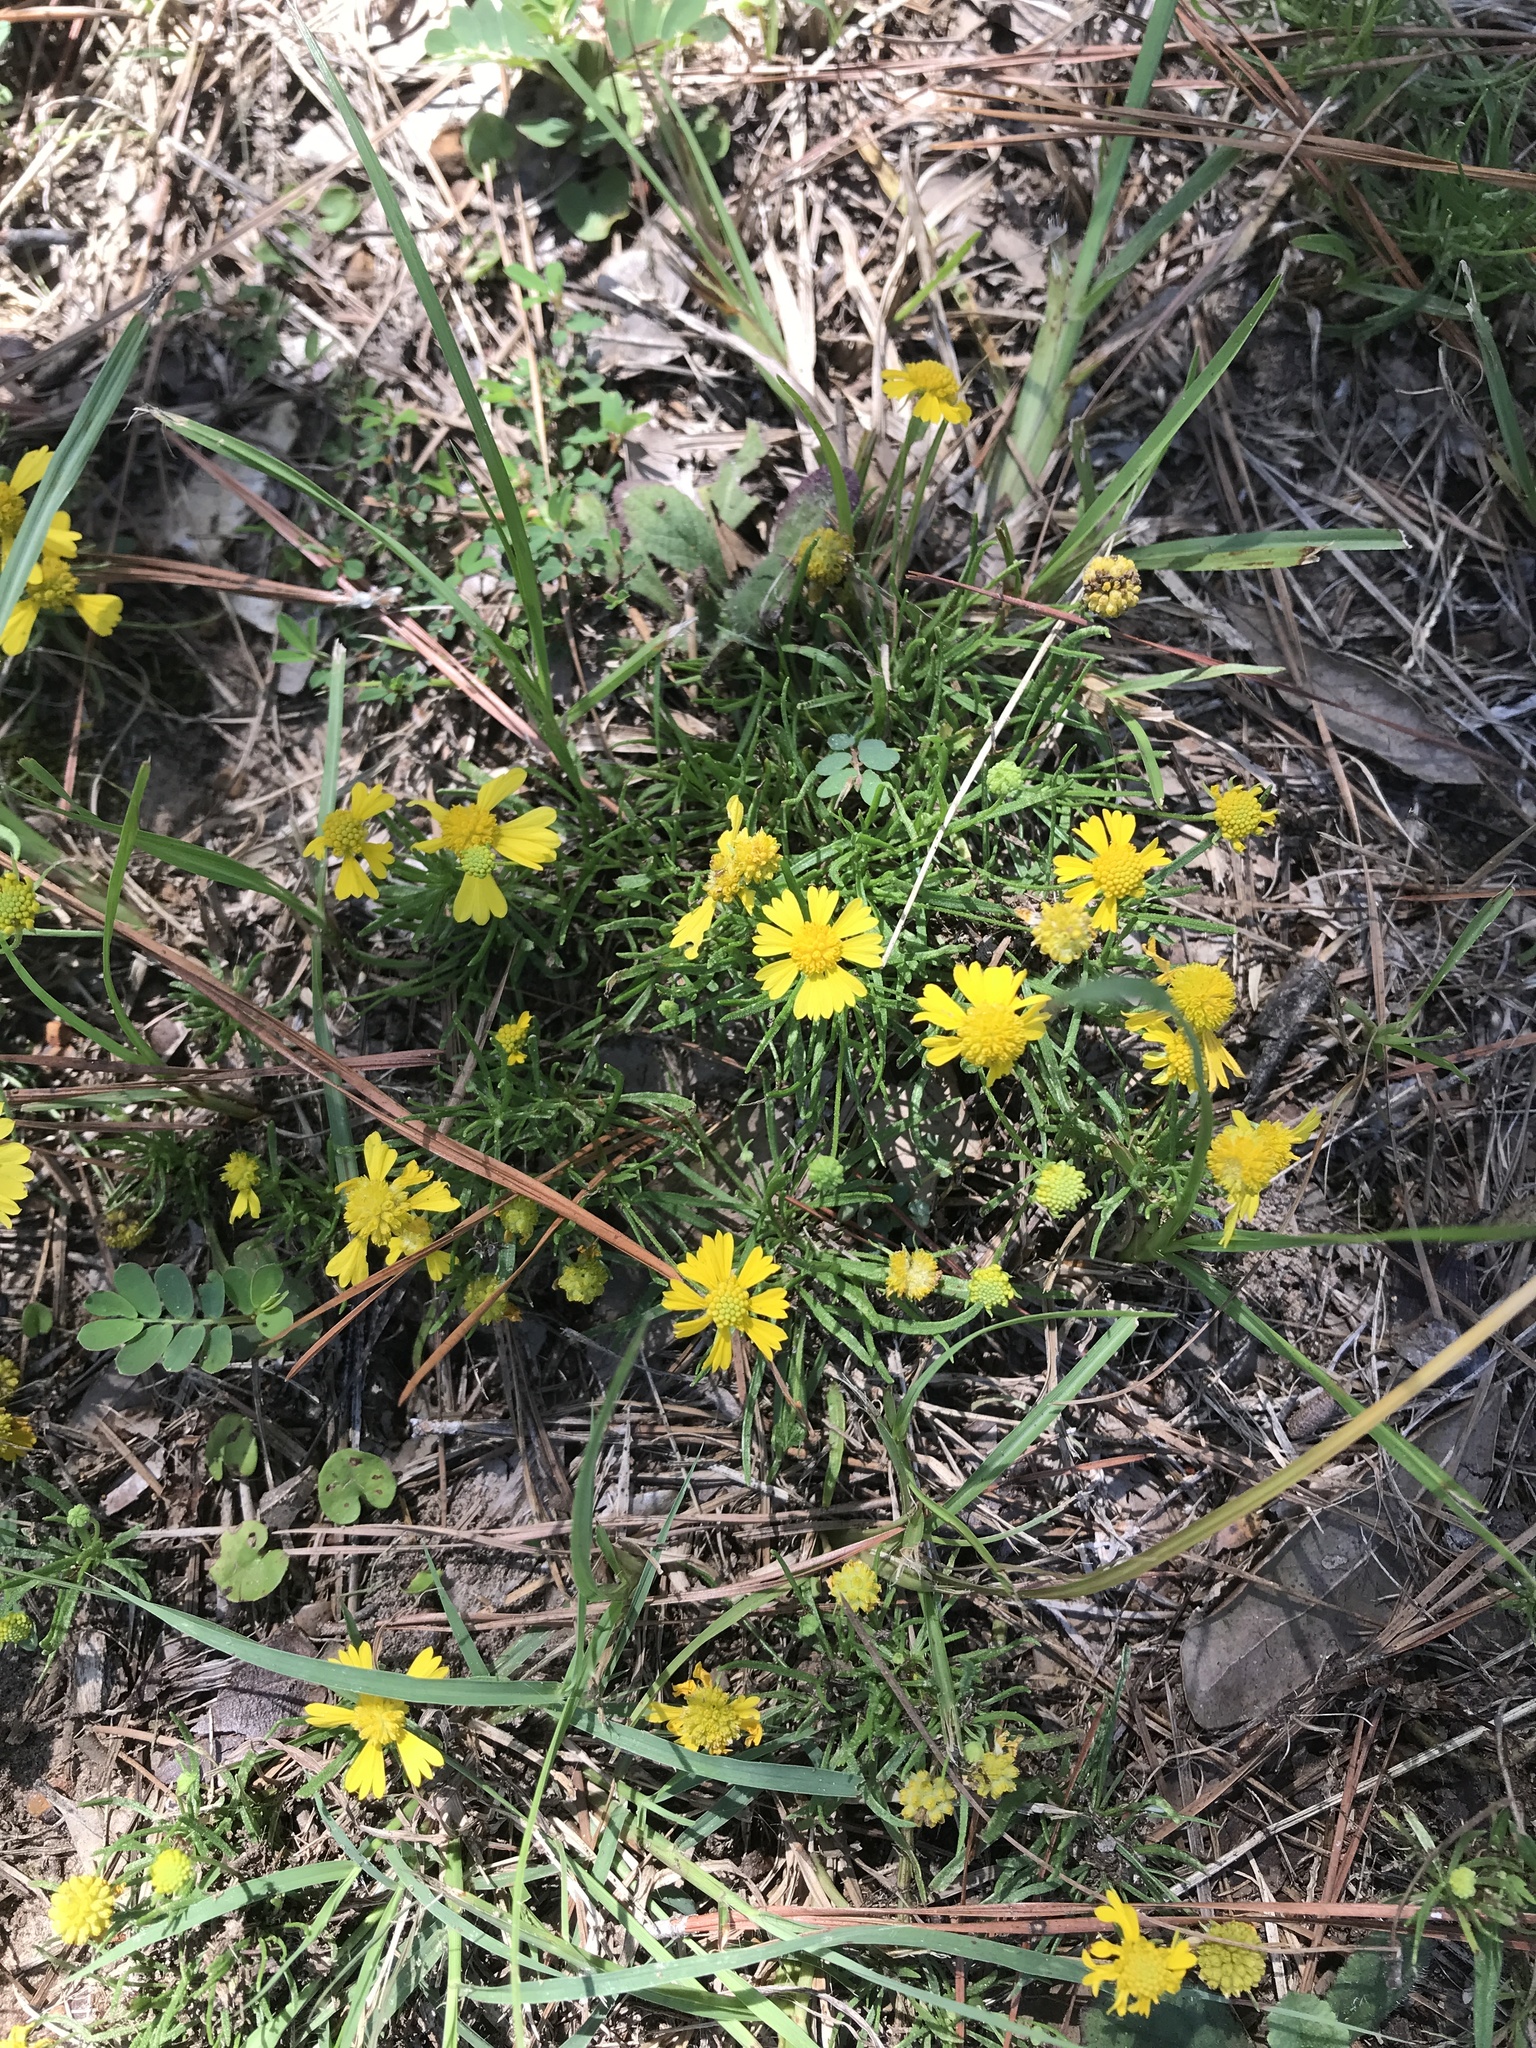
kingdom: Plantae
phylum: Tracheophyta
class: Magnoliopsida
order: Asterales
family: Asteraceae
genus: Helenium
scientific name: Helenium amarum
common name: Bitter sneezeweed
